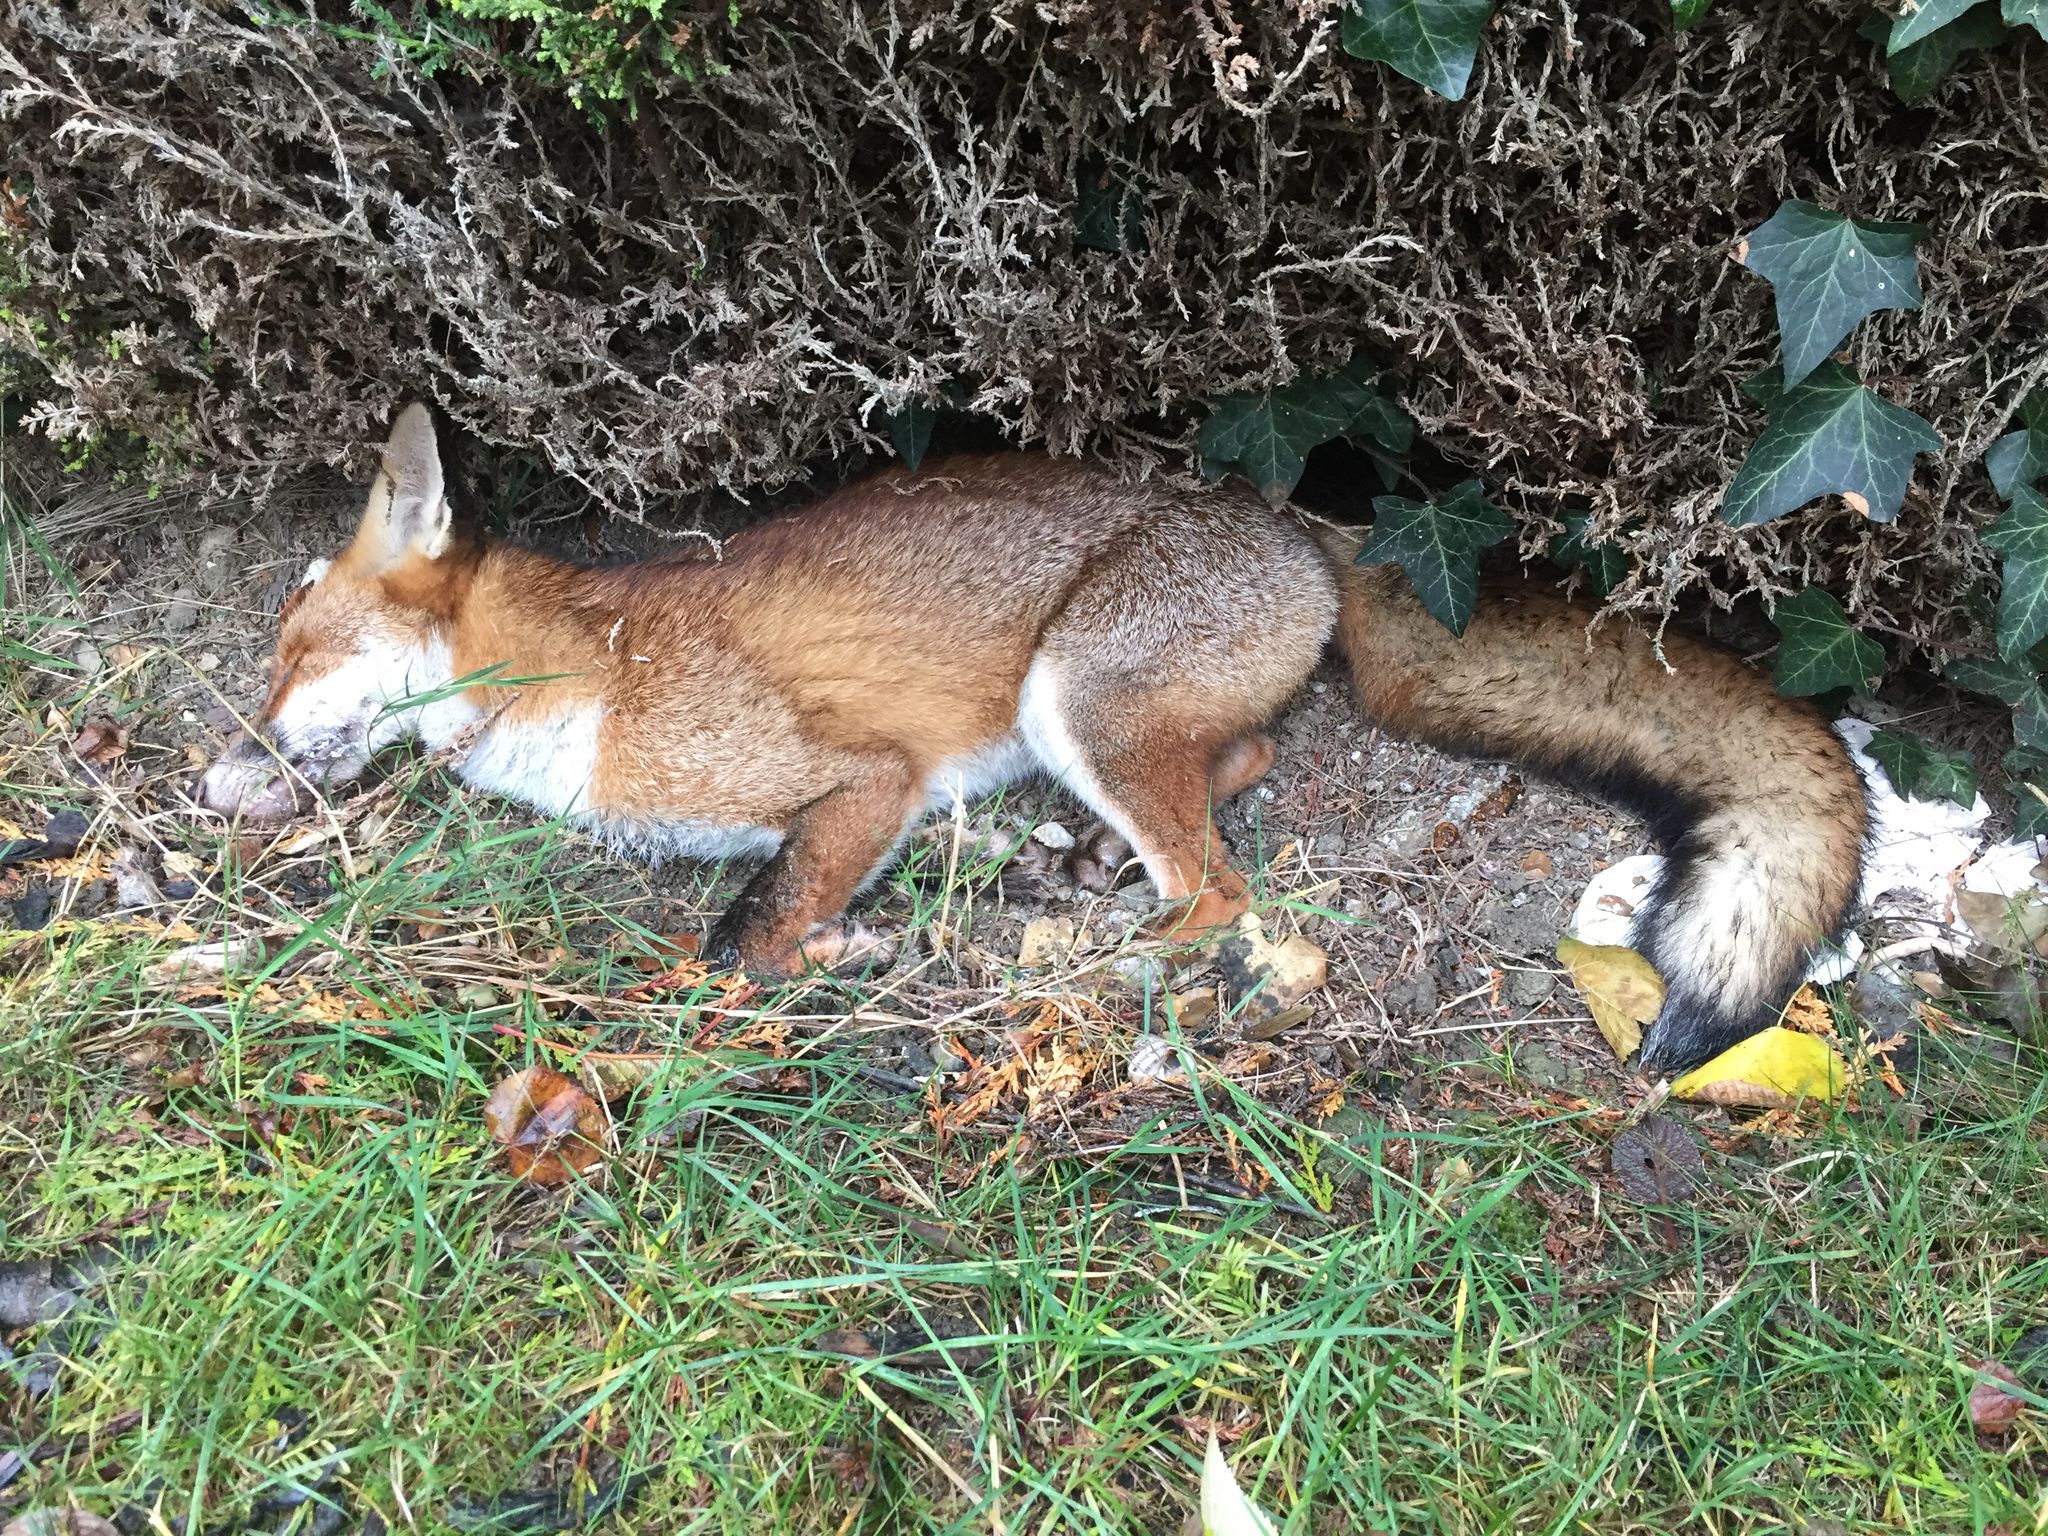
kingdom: Animalia
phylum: Chordata
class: Mammalia
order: Carnivora
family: Canidae
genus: Vulpes
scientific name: Vulpes vulpes
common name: Red fox
